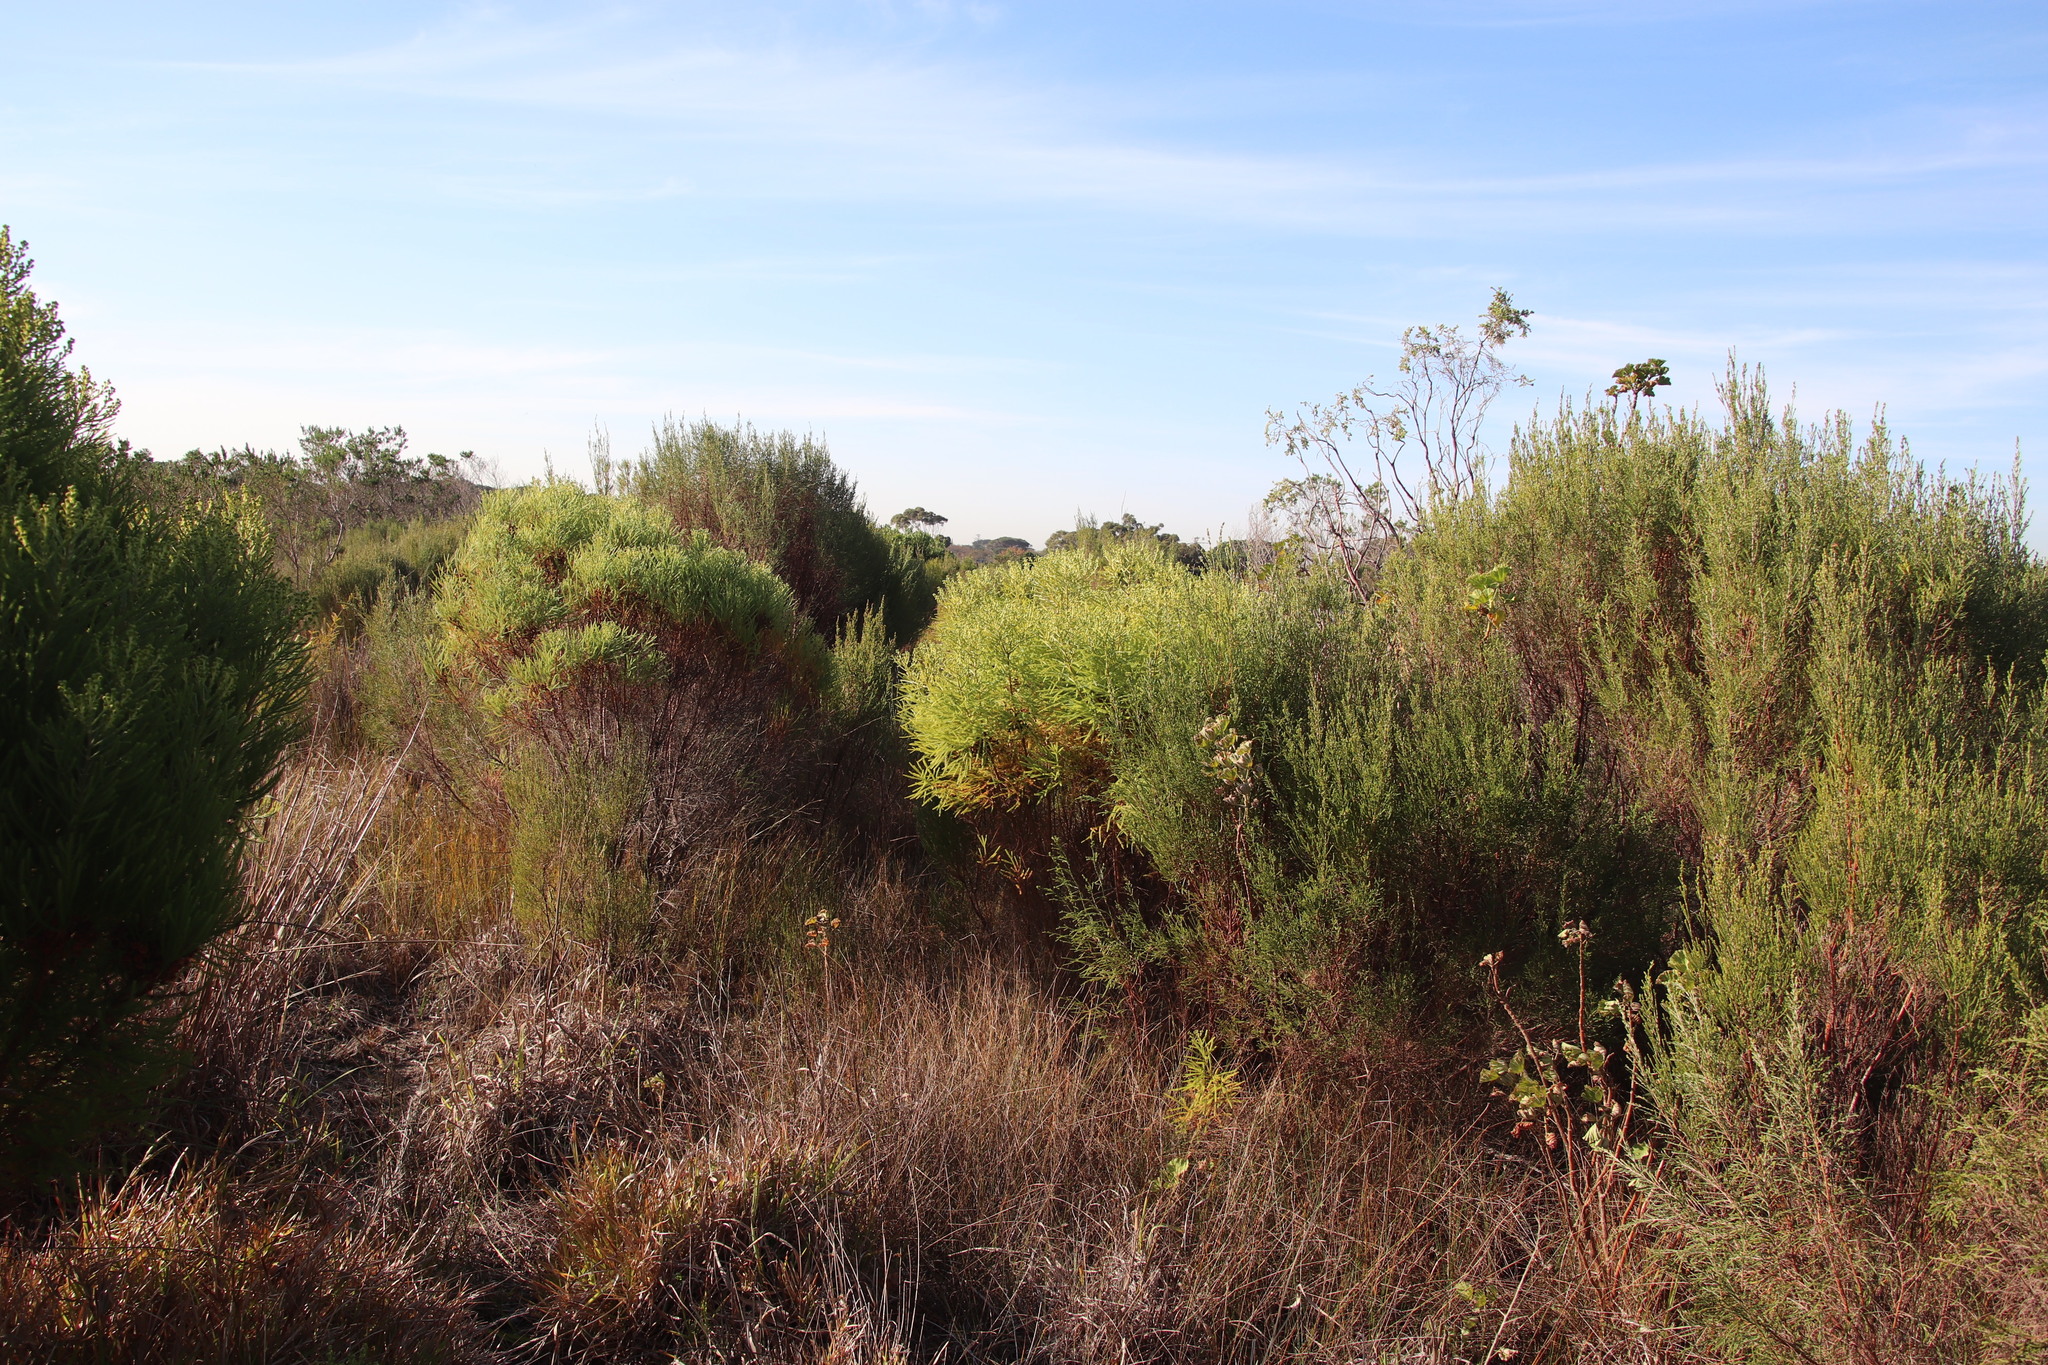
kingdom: Plantae
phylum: Tracheophyta
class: Magnoliopsida
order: Bruniales
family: Bruniaceae
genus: Berzelia
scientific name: Berzelia lanuginosa
